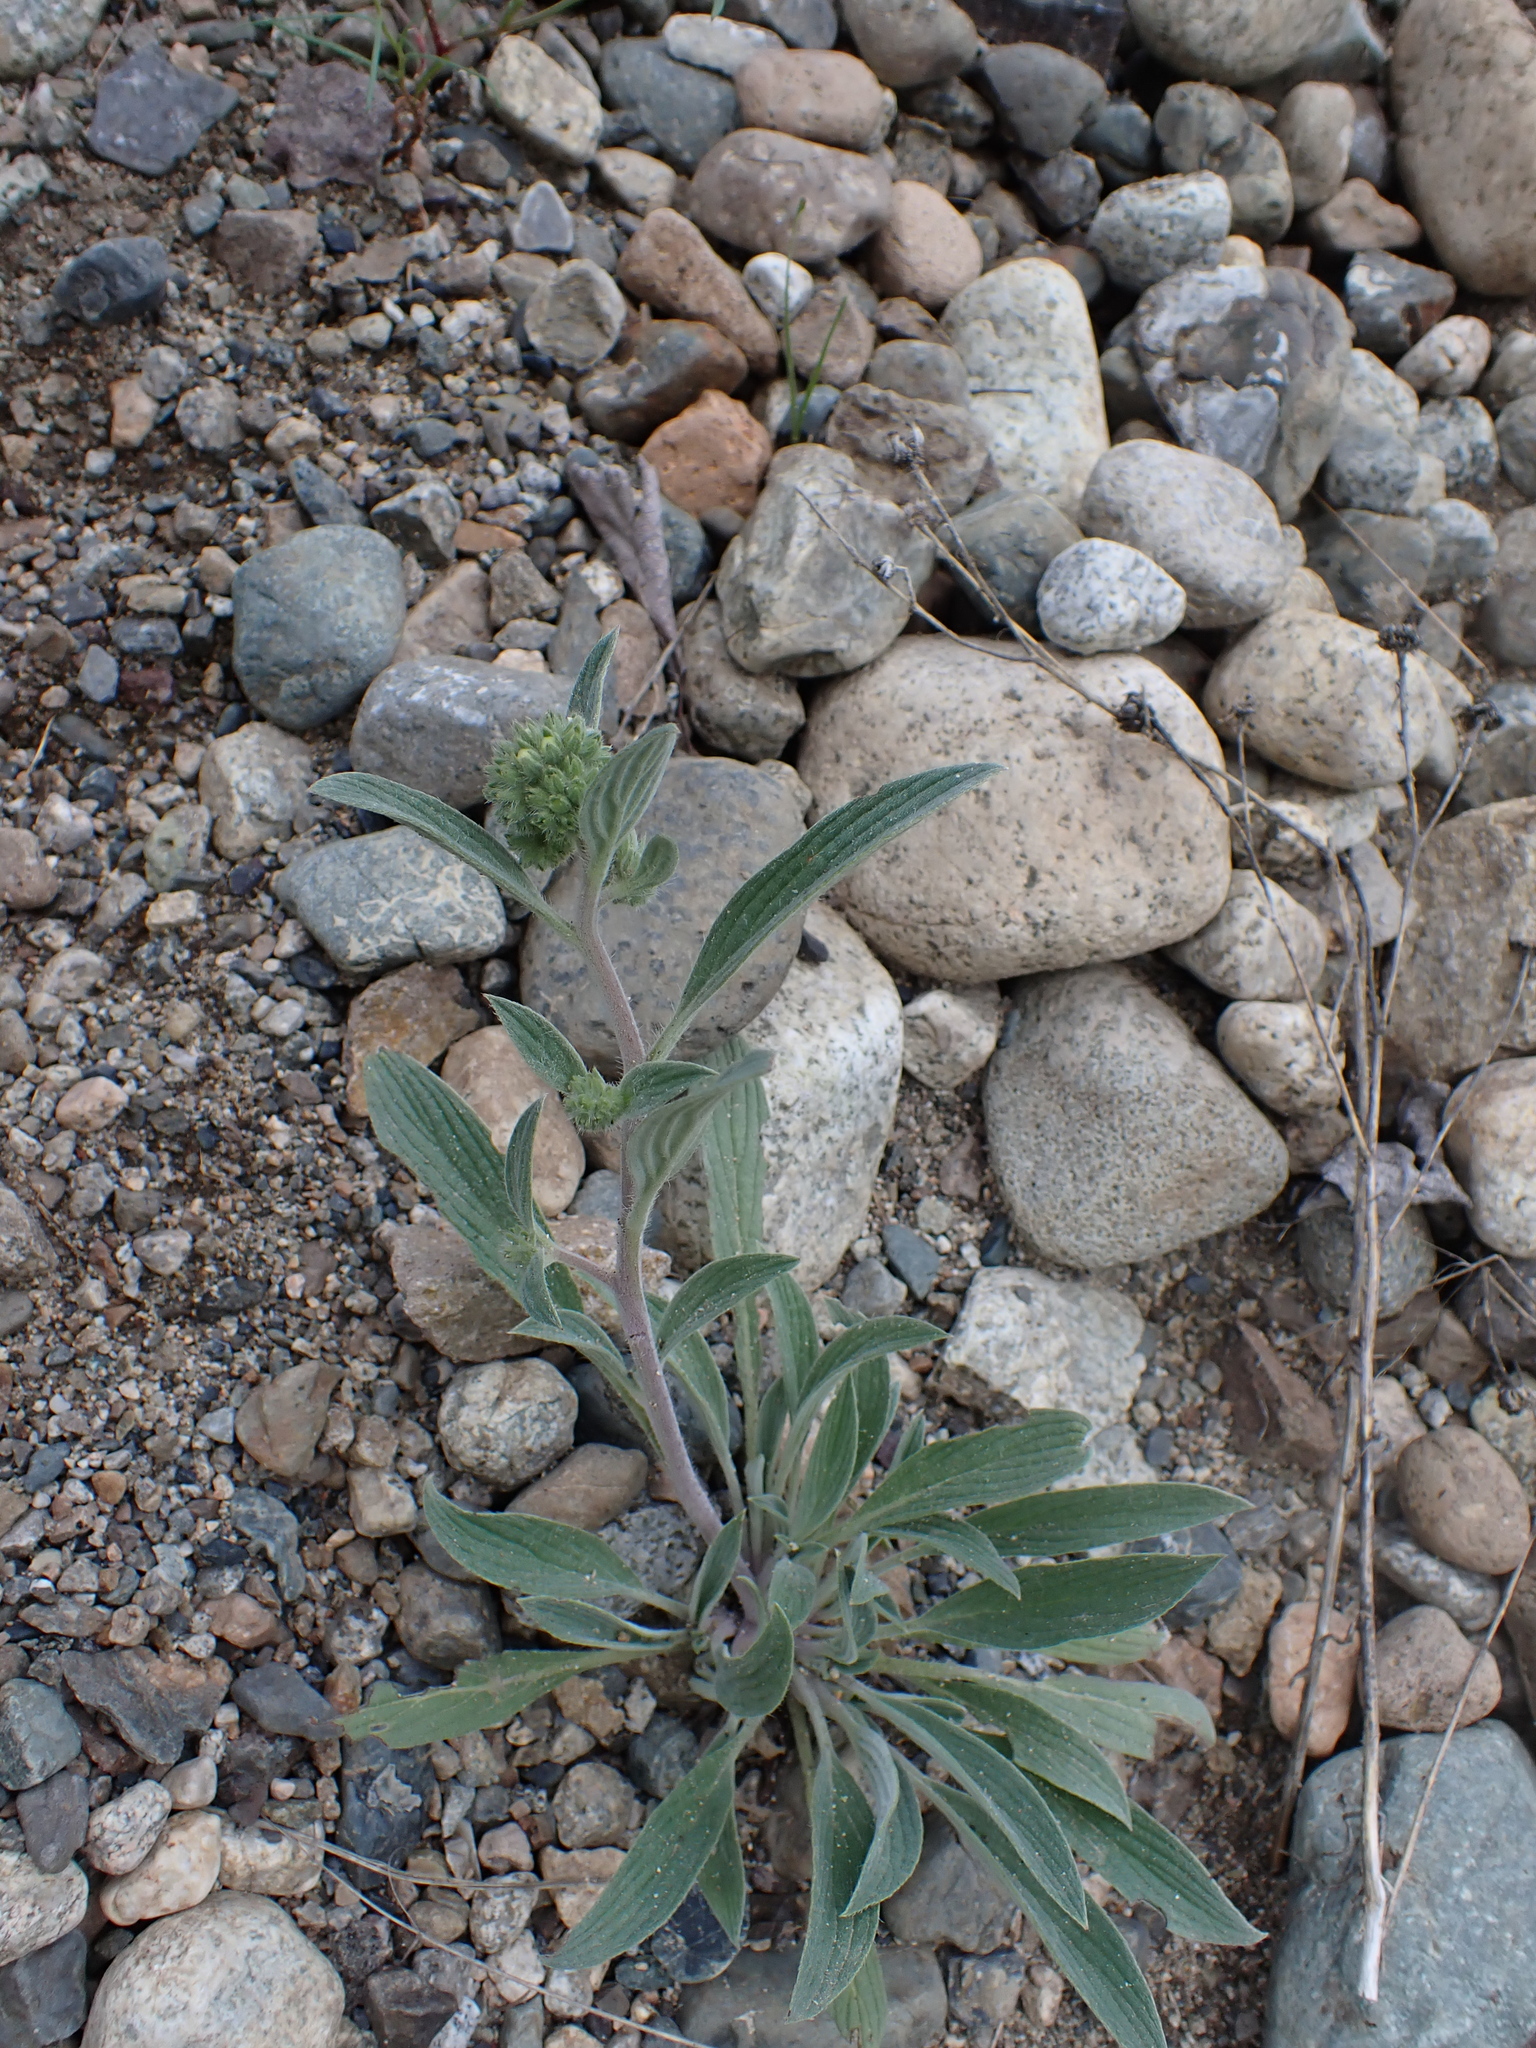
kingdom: Plantae
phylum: Tracheophyta
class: Magnoliopsida
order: Boraginales
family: Hydrophyllaceae
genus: Phacelia
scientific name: Phacelia hastata
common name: Silver-leaved phacelia
